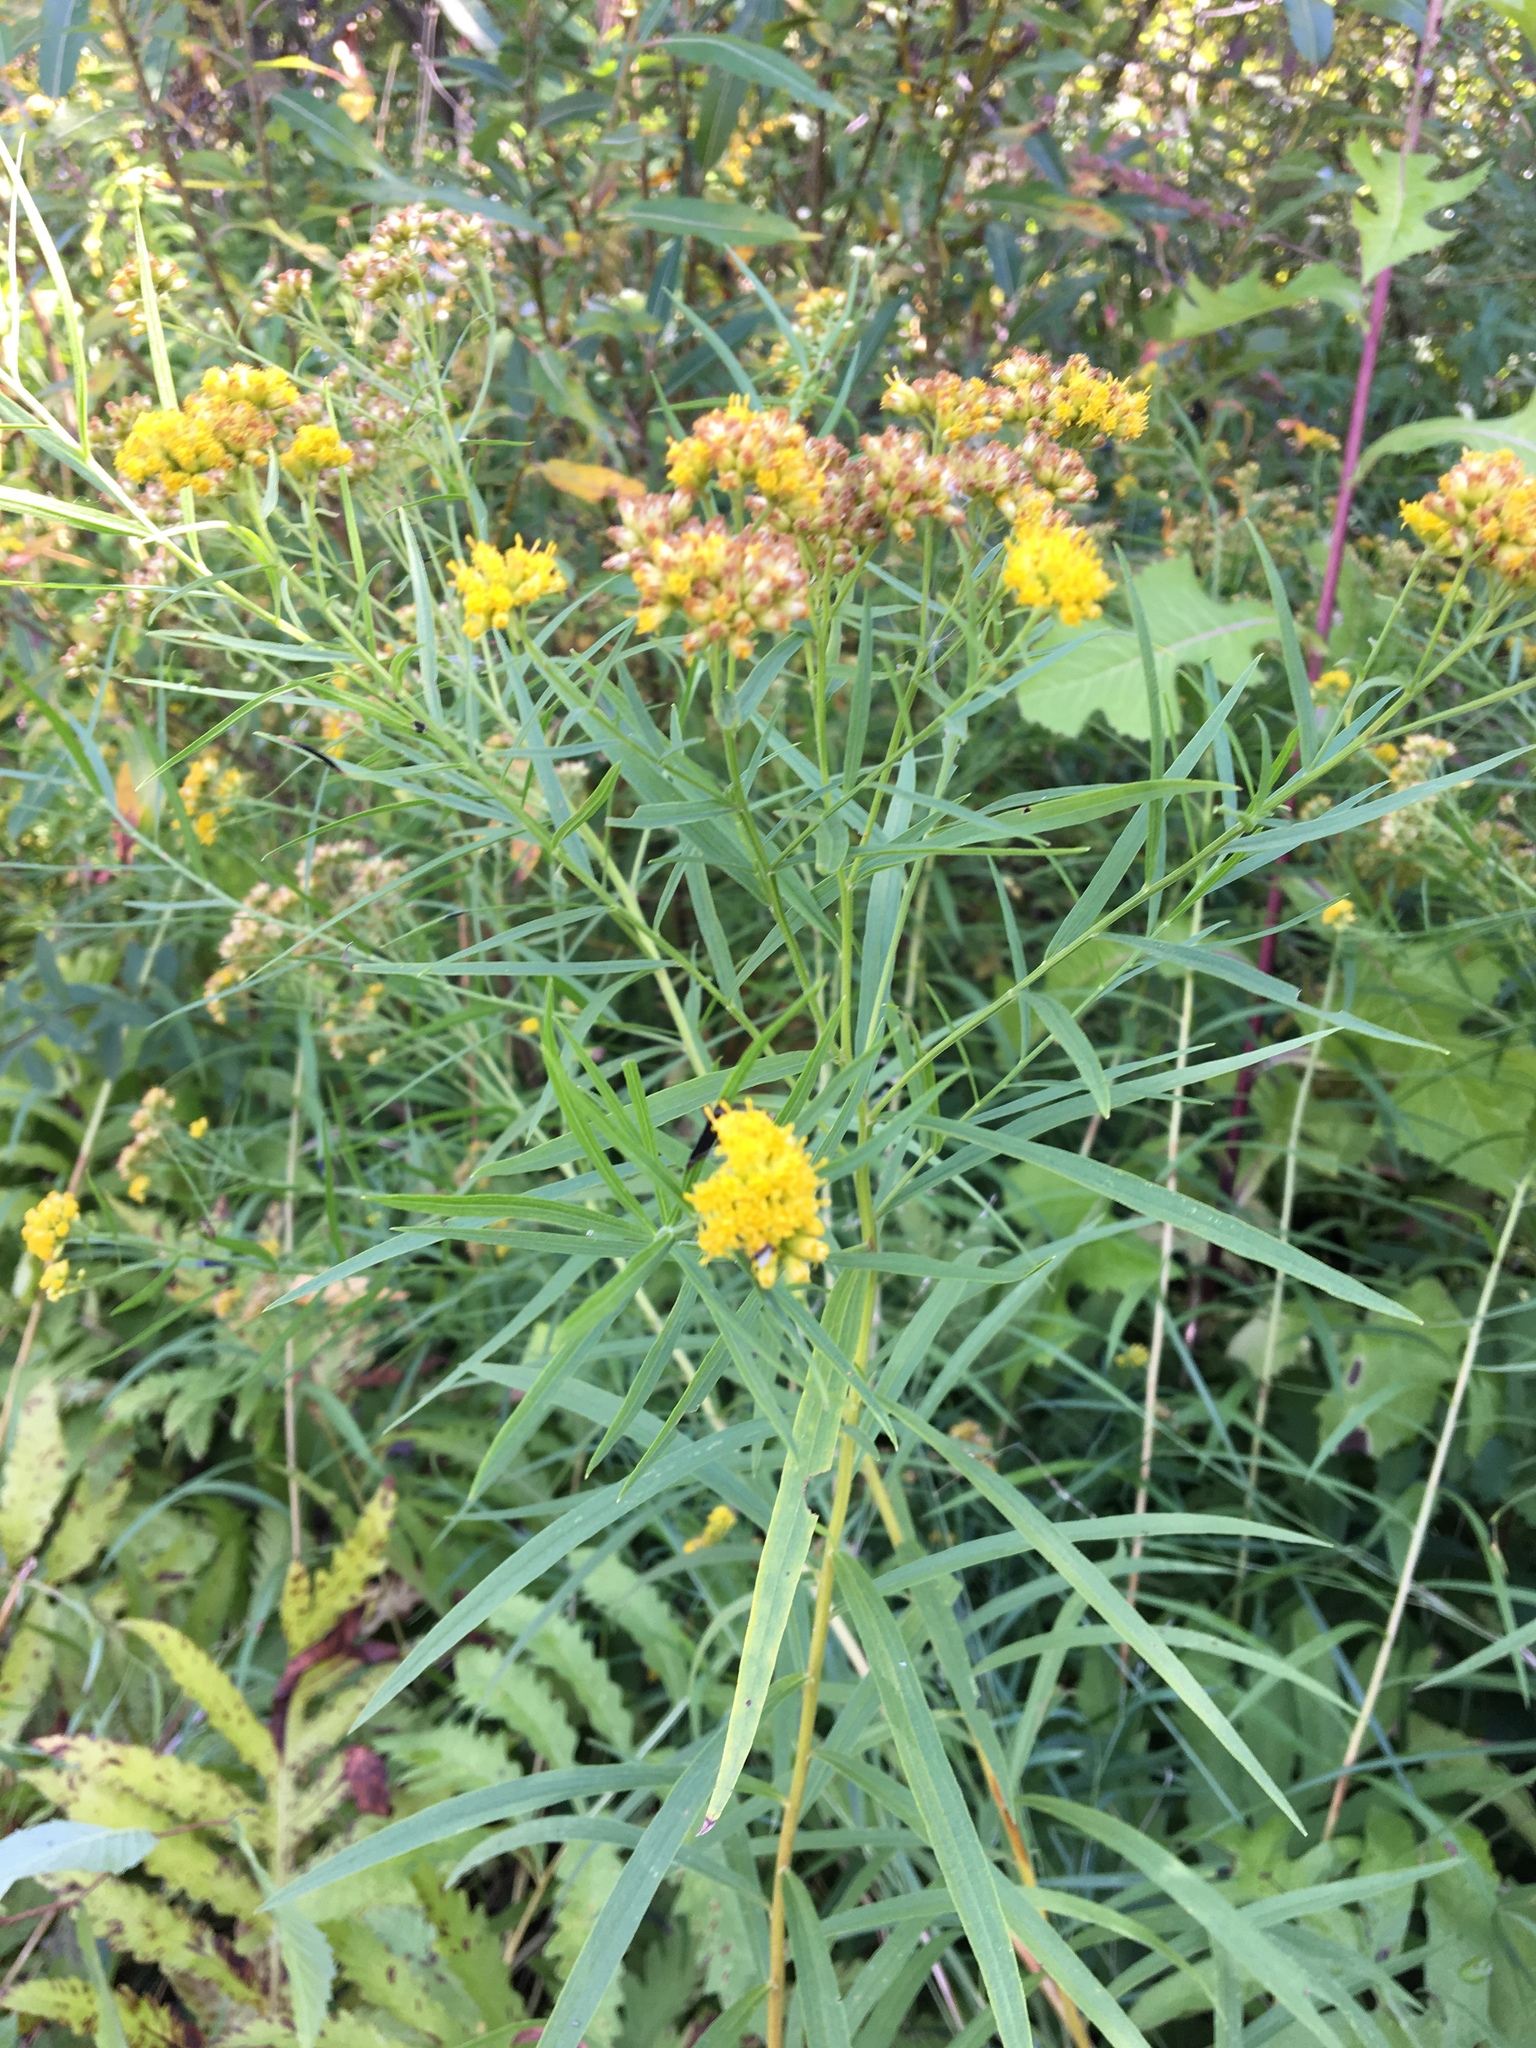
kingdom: Plantae
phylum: Tracheophyta
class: Magnoliopsida
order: Asterales
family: Asteraceae
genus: Euthamia
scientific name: Euthamia graminifolia
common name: Common goldentop
